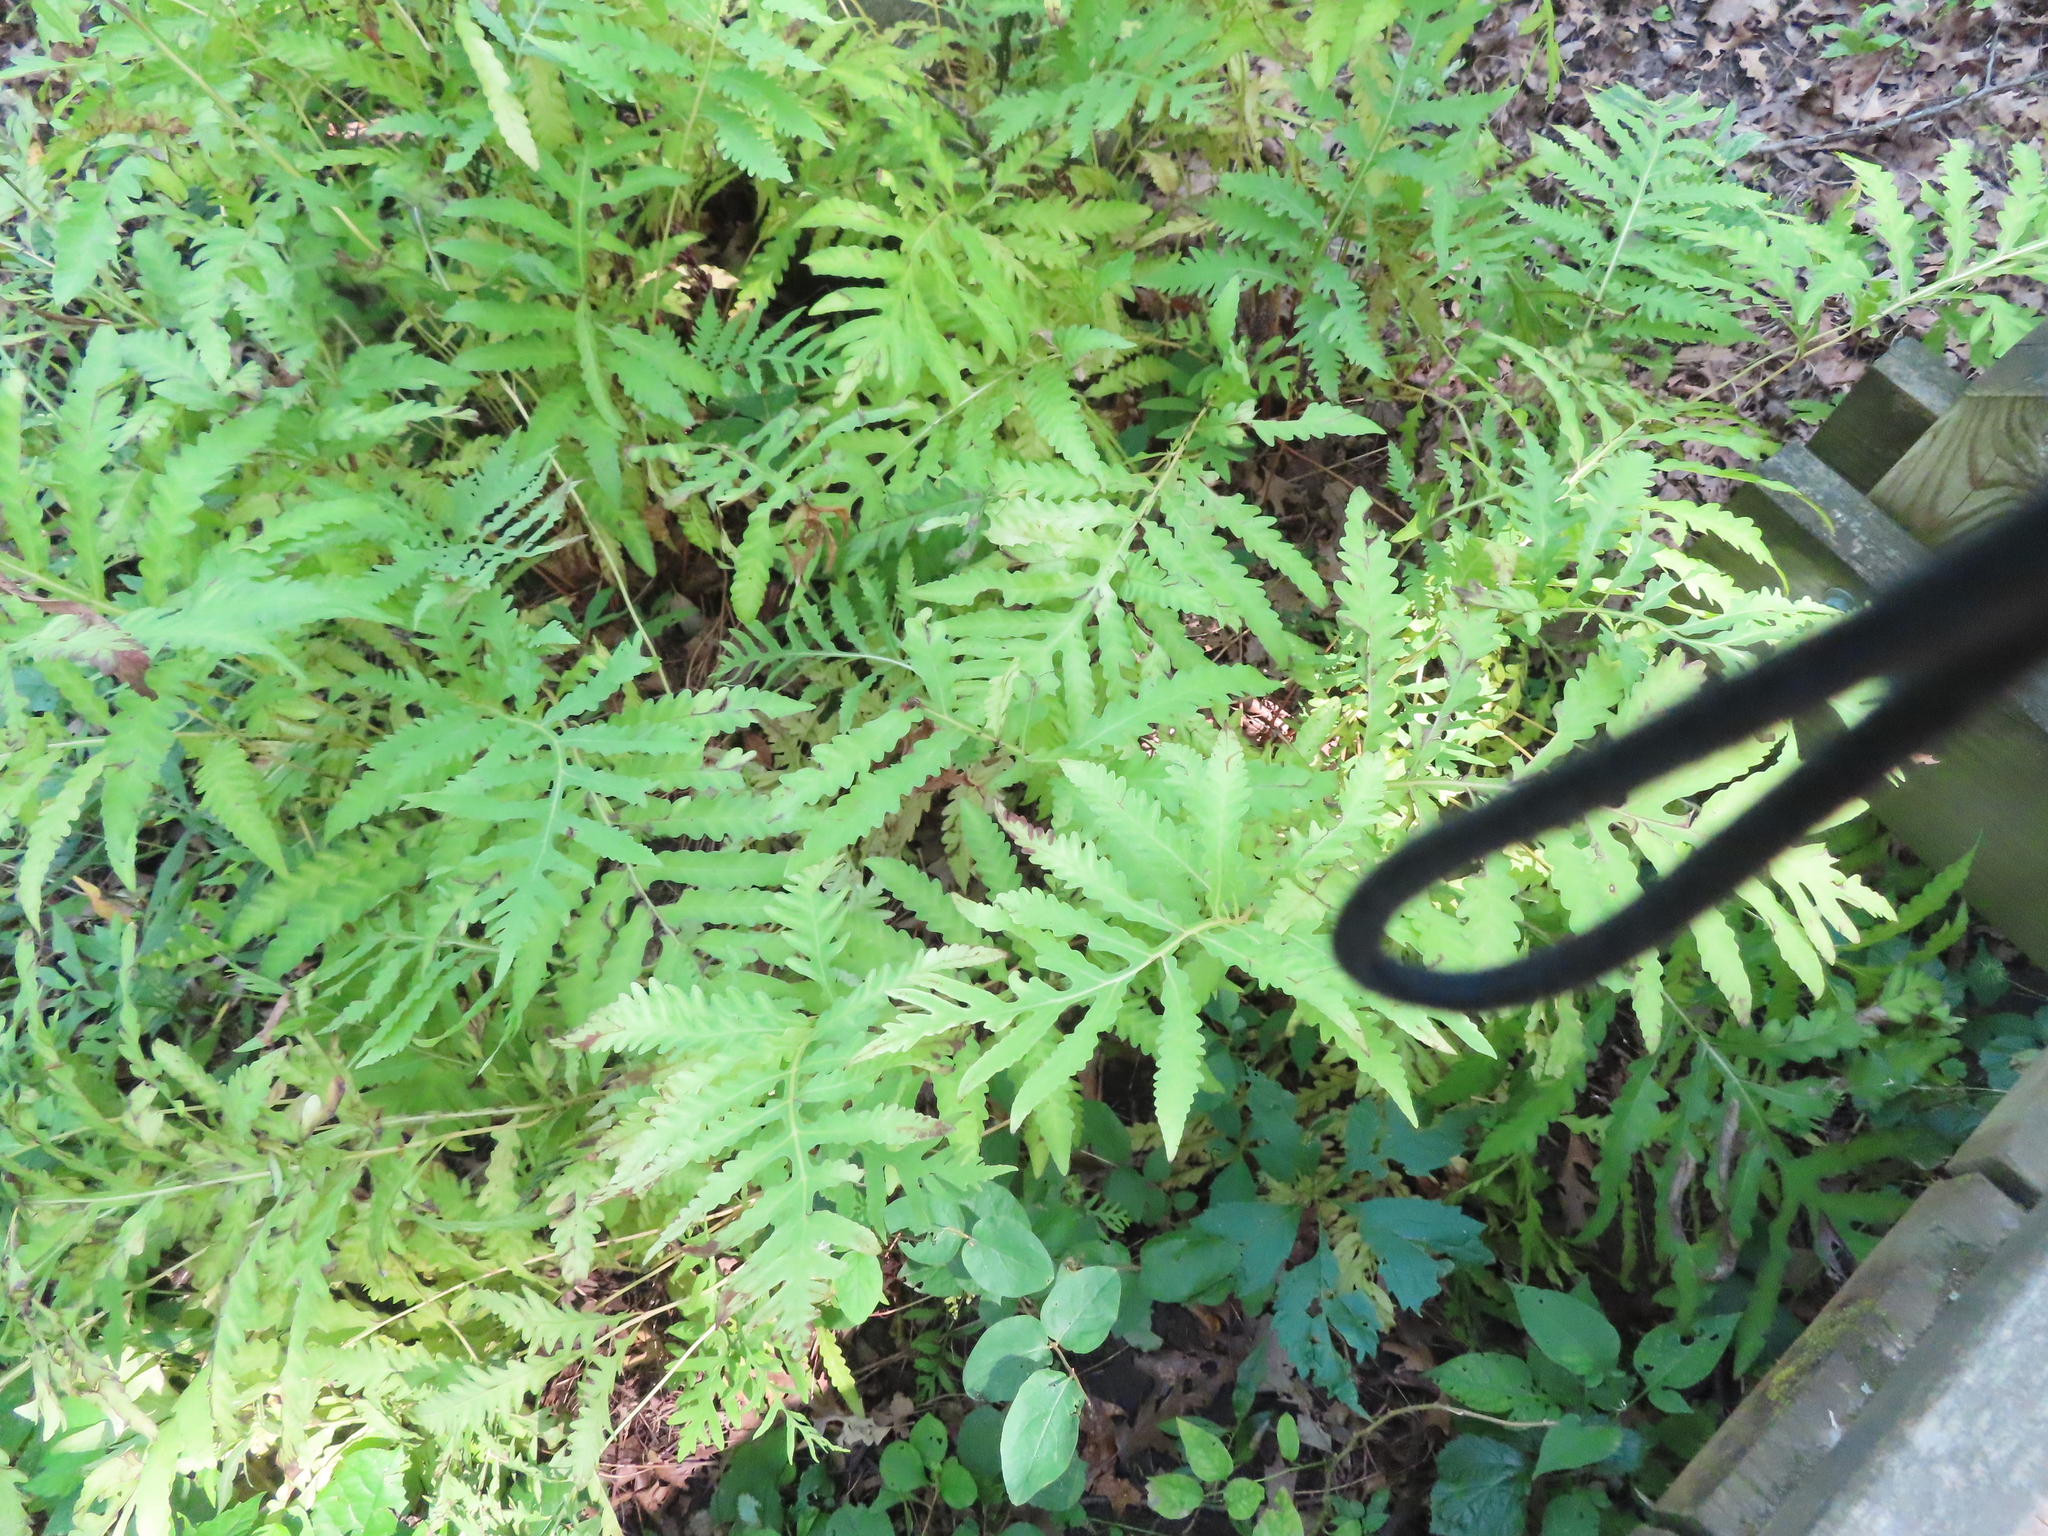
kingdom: Plantae
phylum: Tracheophyta
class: Polypodiopsida
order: Polypodiales
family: Onocleaceae
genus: Onoclea
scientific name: Onoclea sensibilis
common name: Sensitive fern
